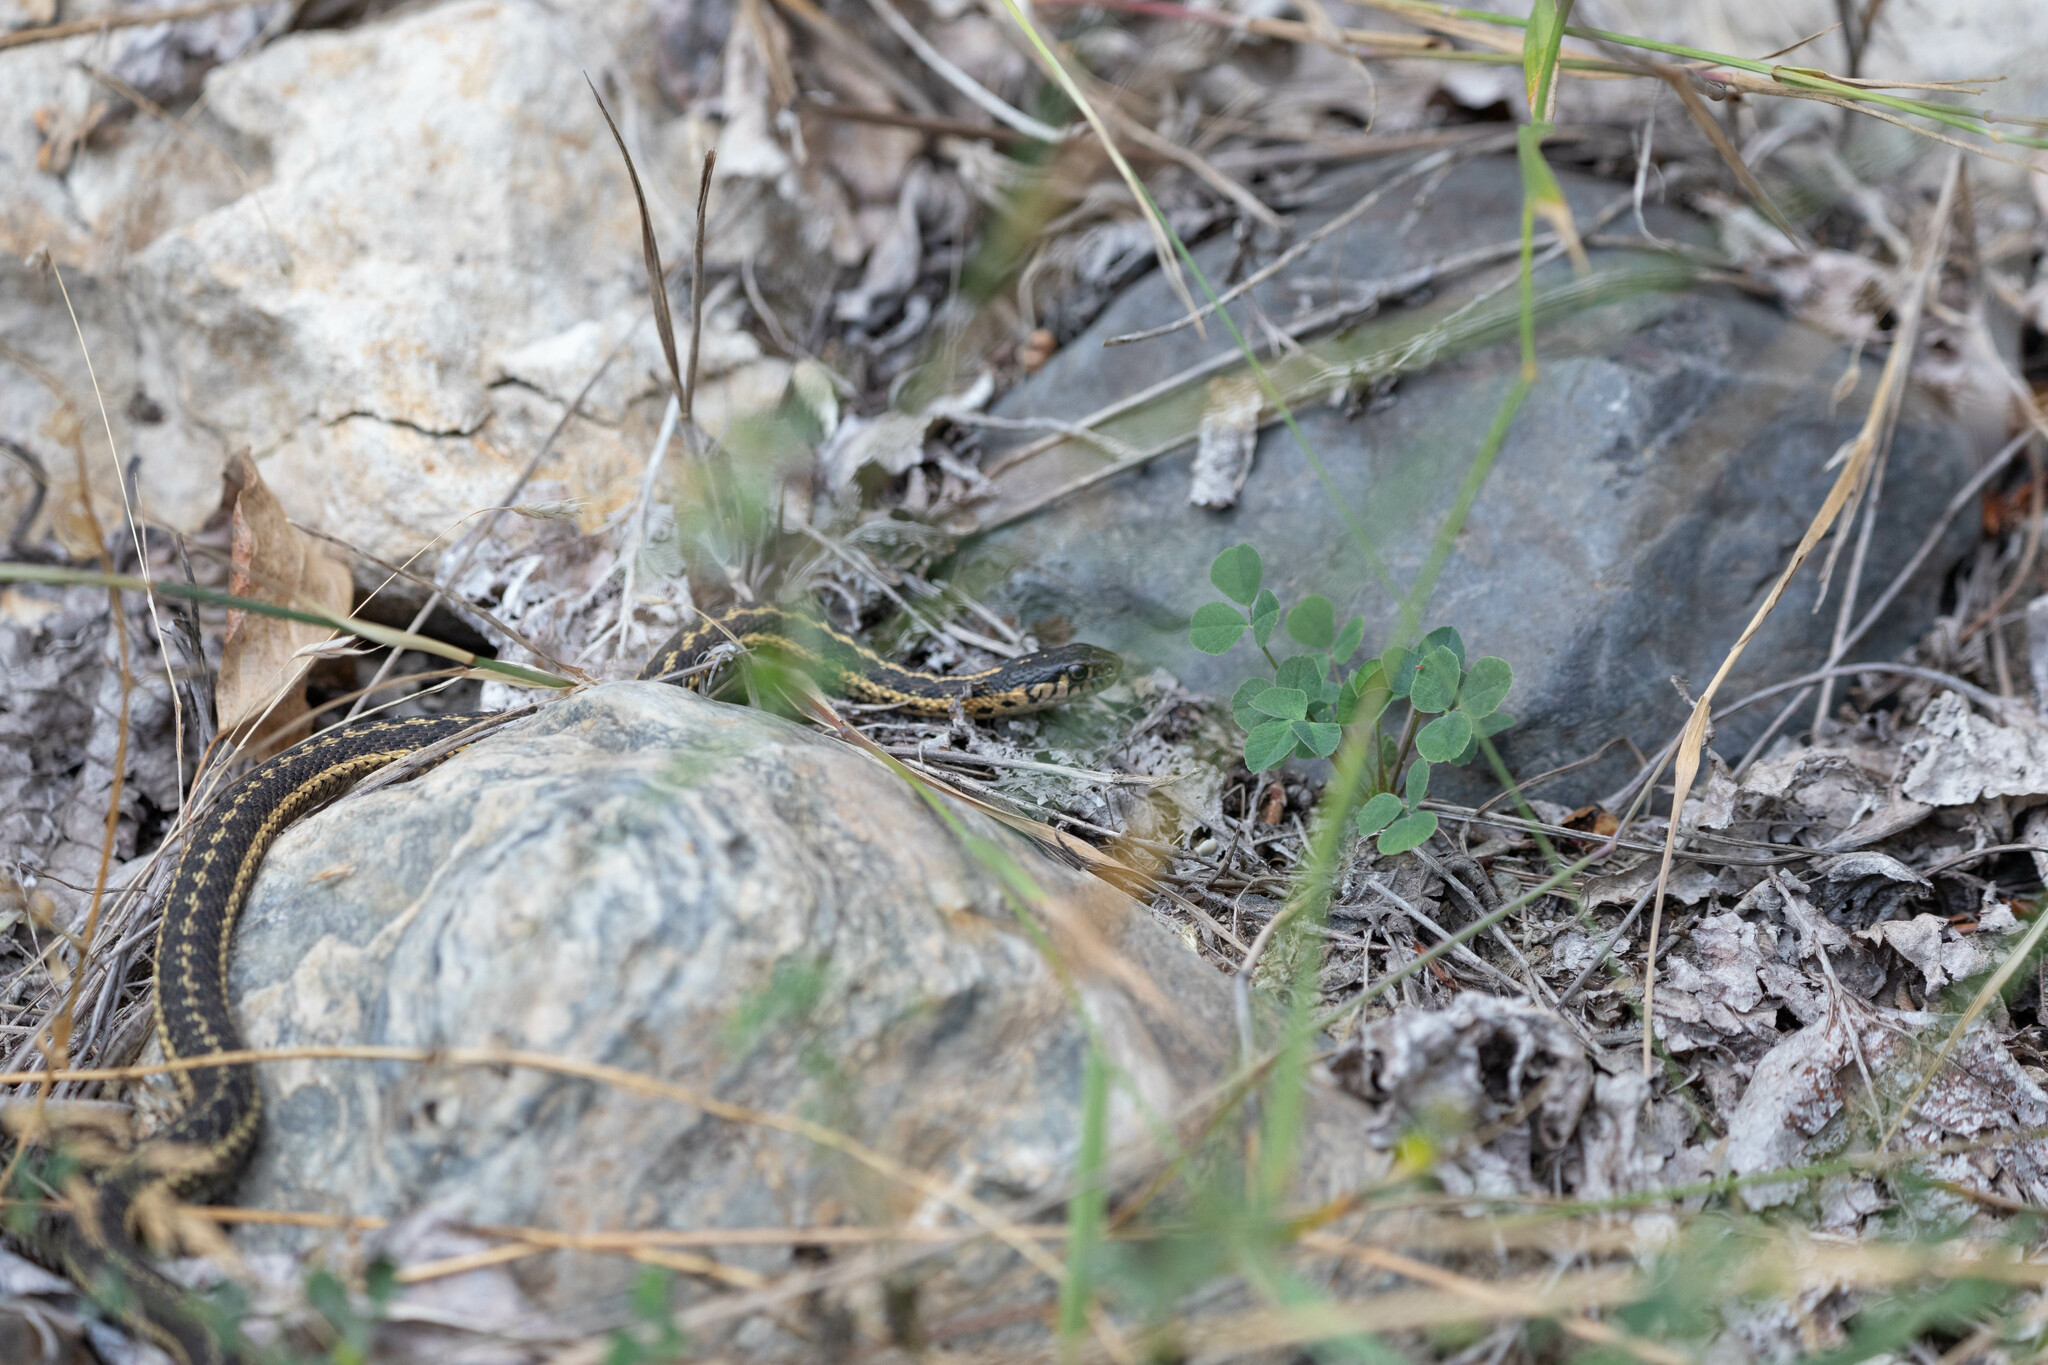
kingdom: Animalia
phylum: Chordata
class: Squamata
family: Colubridae
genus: Thamnophis
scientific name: Thamnophis elegans
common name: Western terrestrial garter snake
